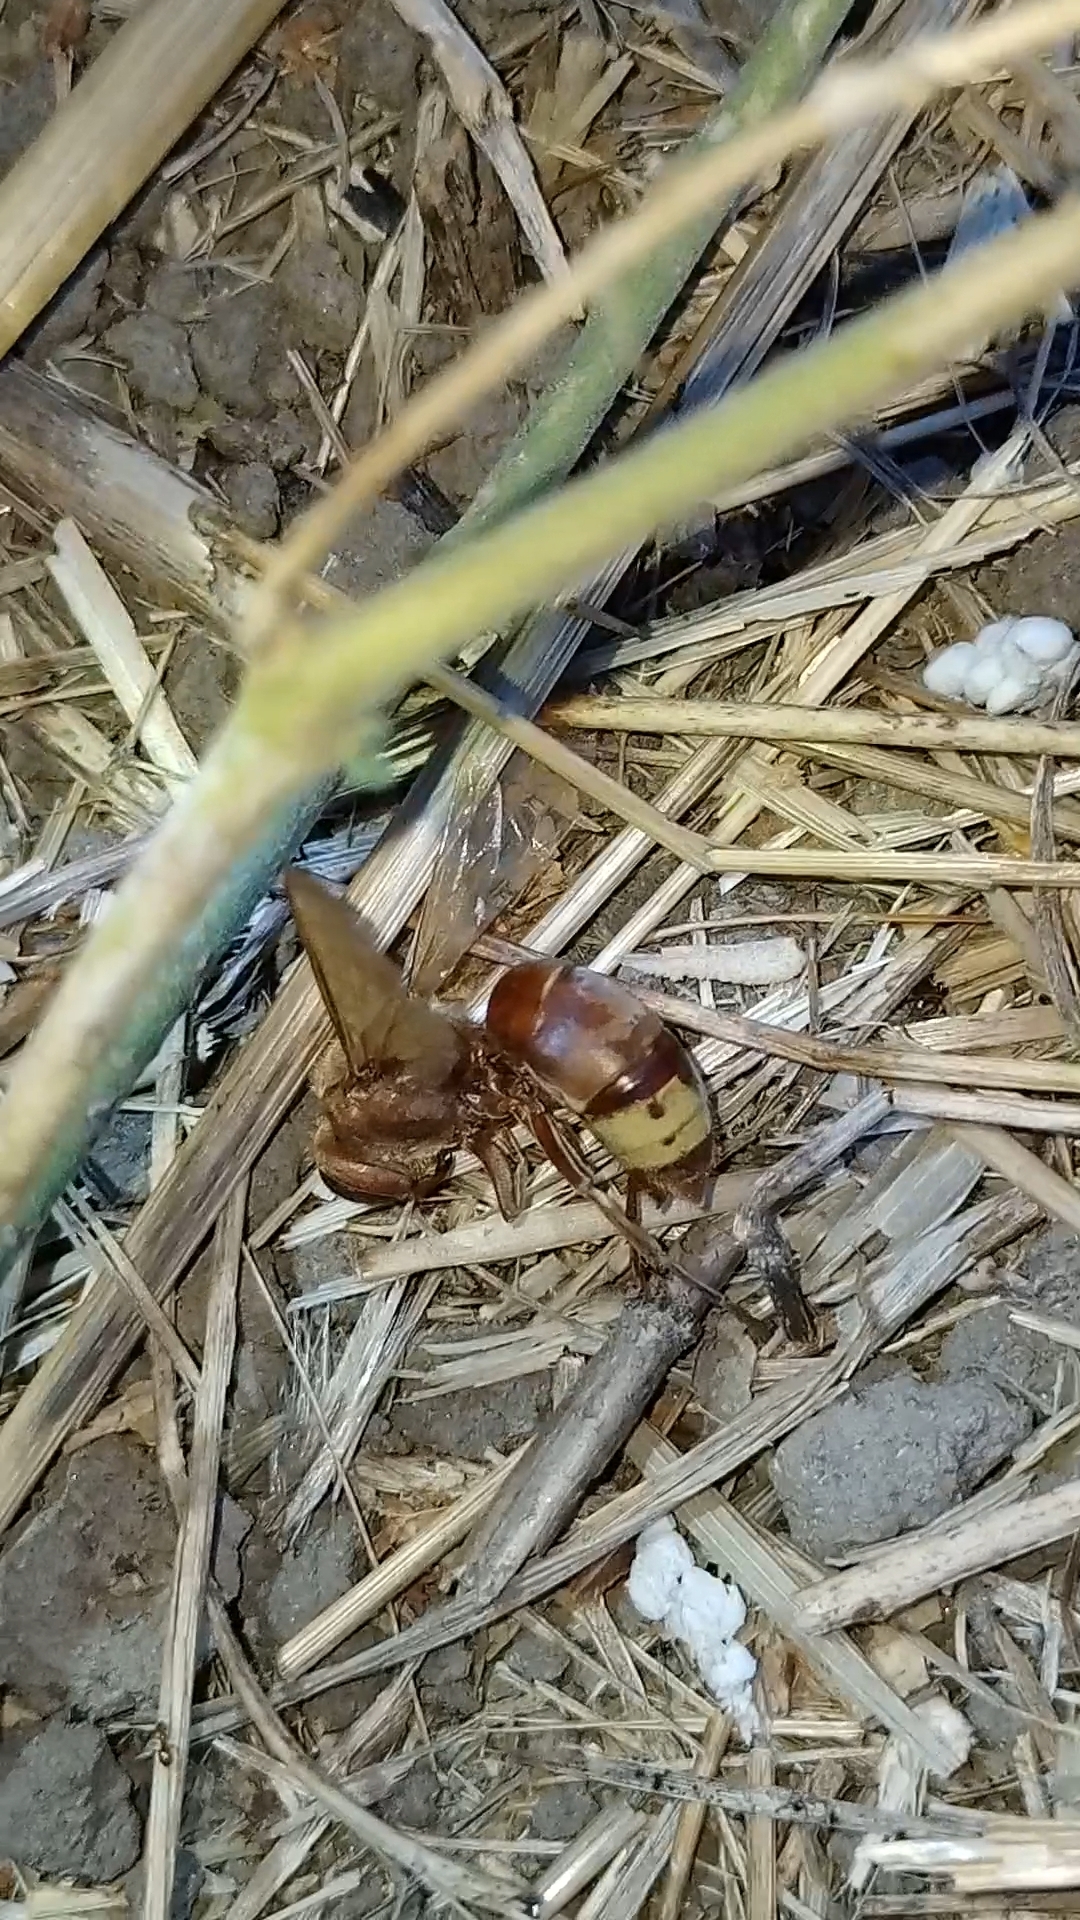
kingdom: Animalia
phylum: Arthropoda
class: Insecta
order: Hymenoptera
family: Vespidae
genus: Vespa
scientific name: Vespa orientalis
